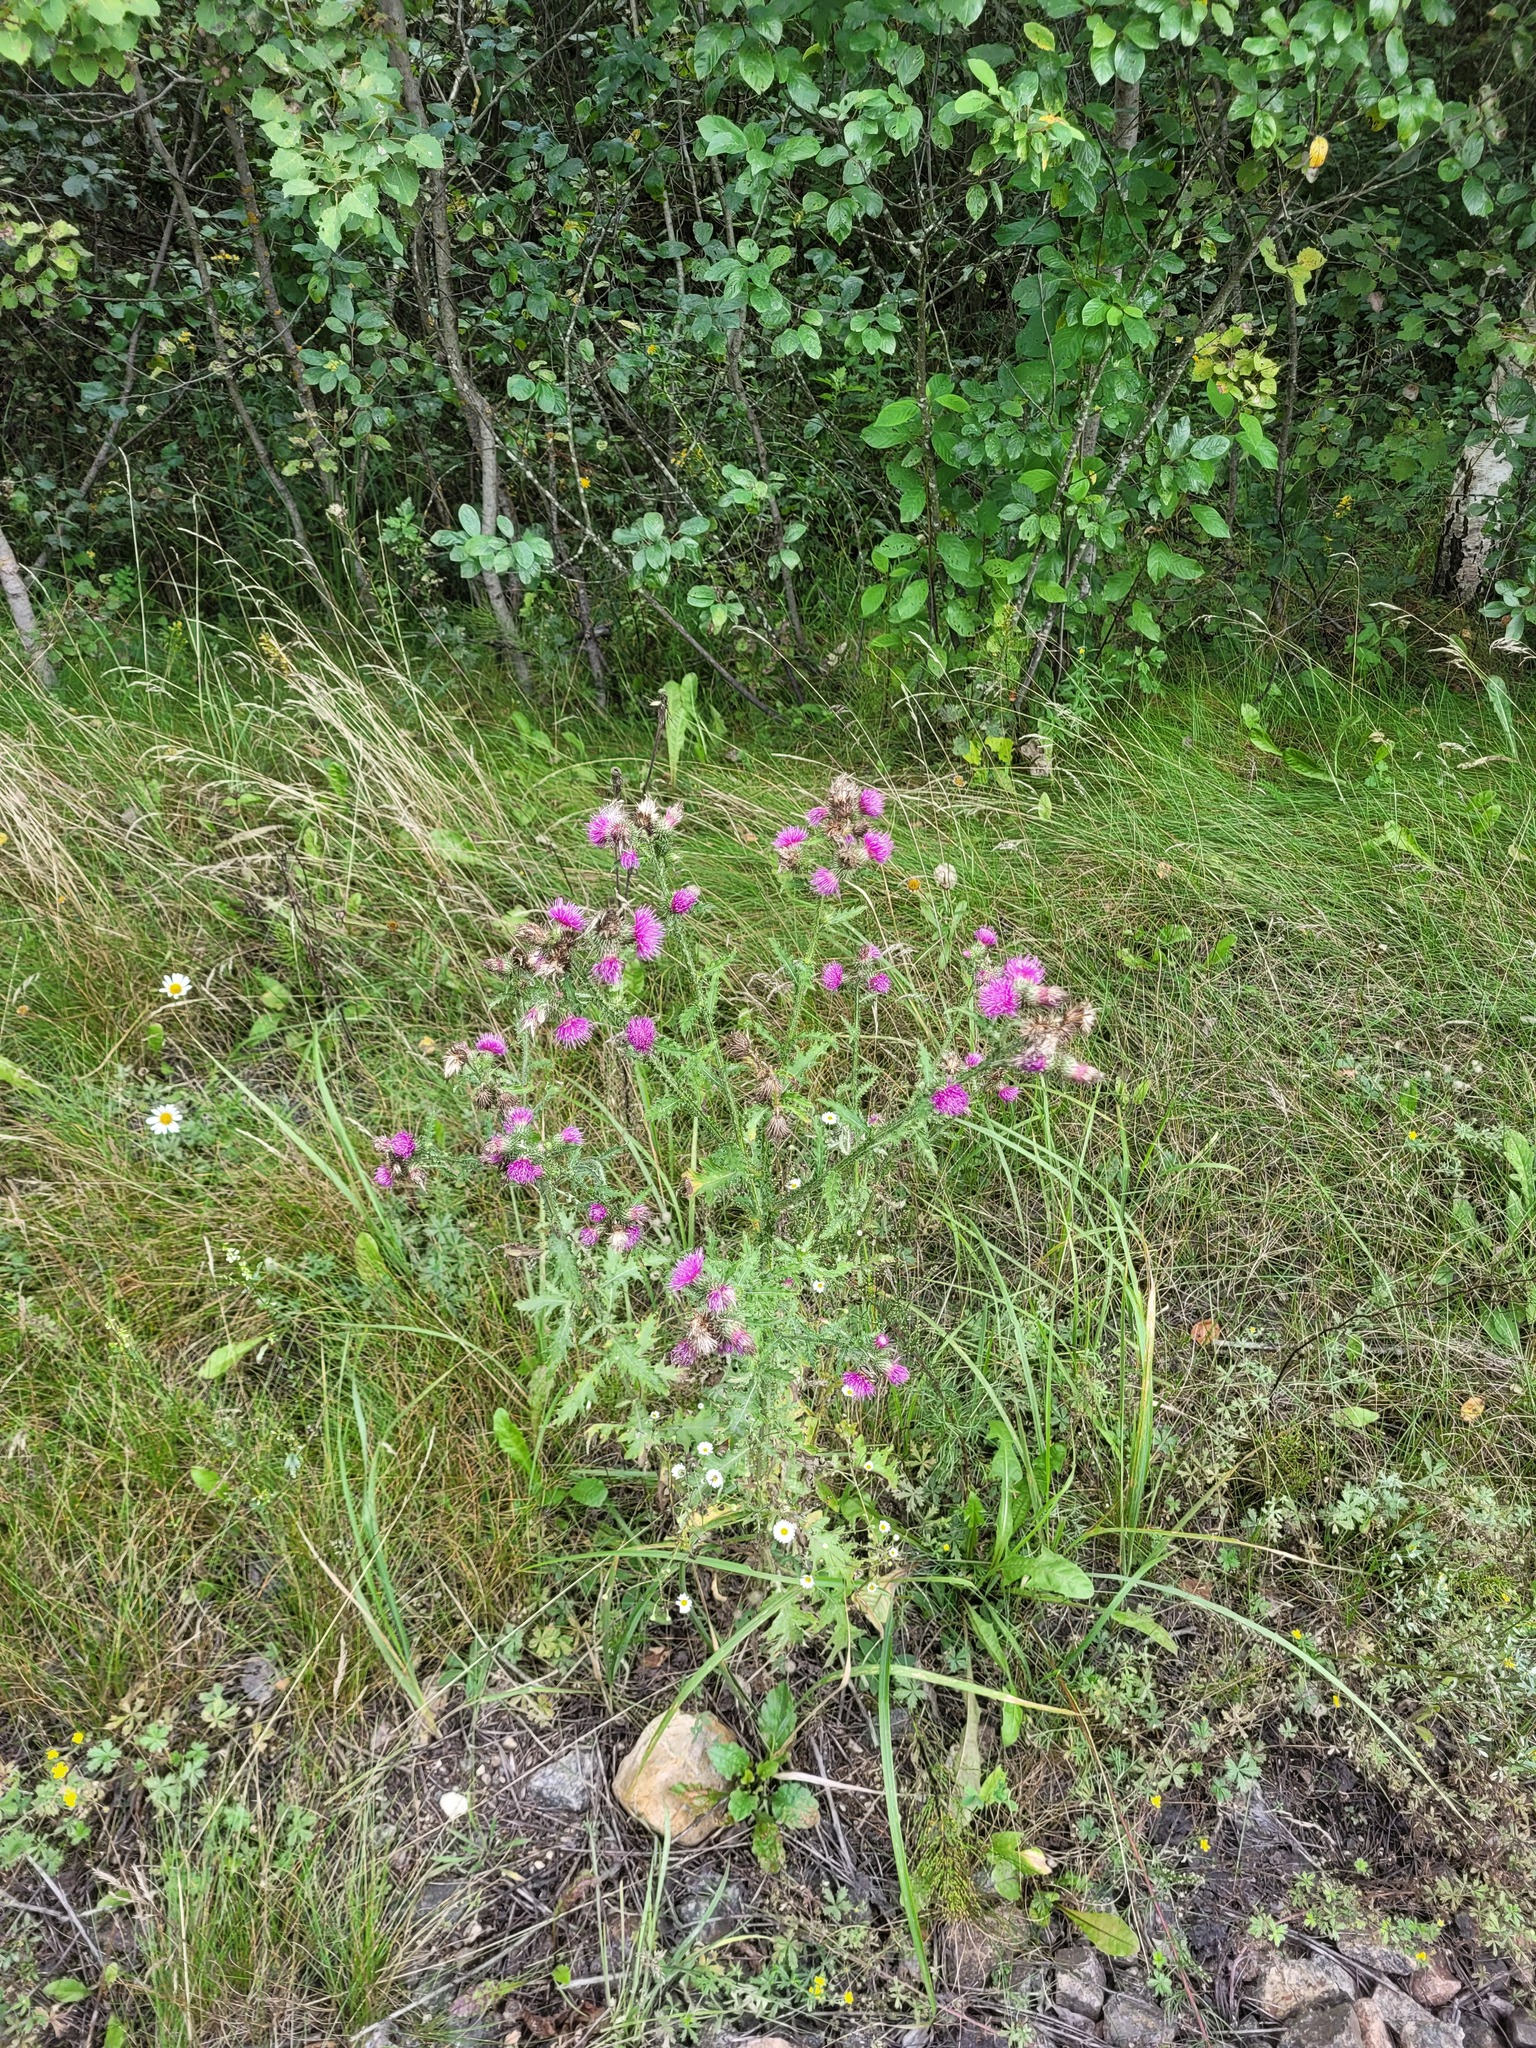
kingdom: Plantae
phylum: Tracheophyta
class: Magnoliopsida
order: Asterales
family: Asteraceae
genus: Carduus
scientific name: Carduus crispus
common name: Welted thistle
